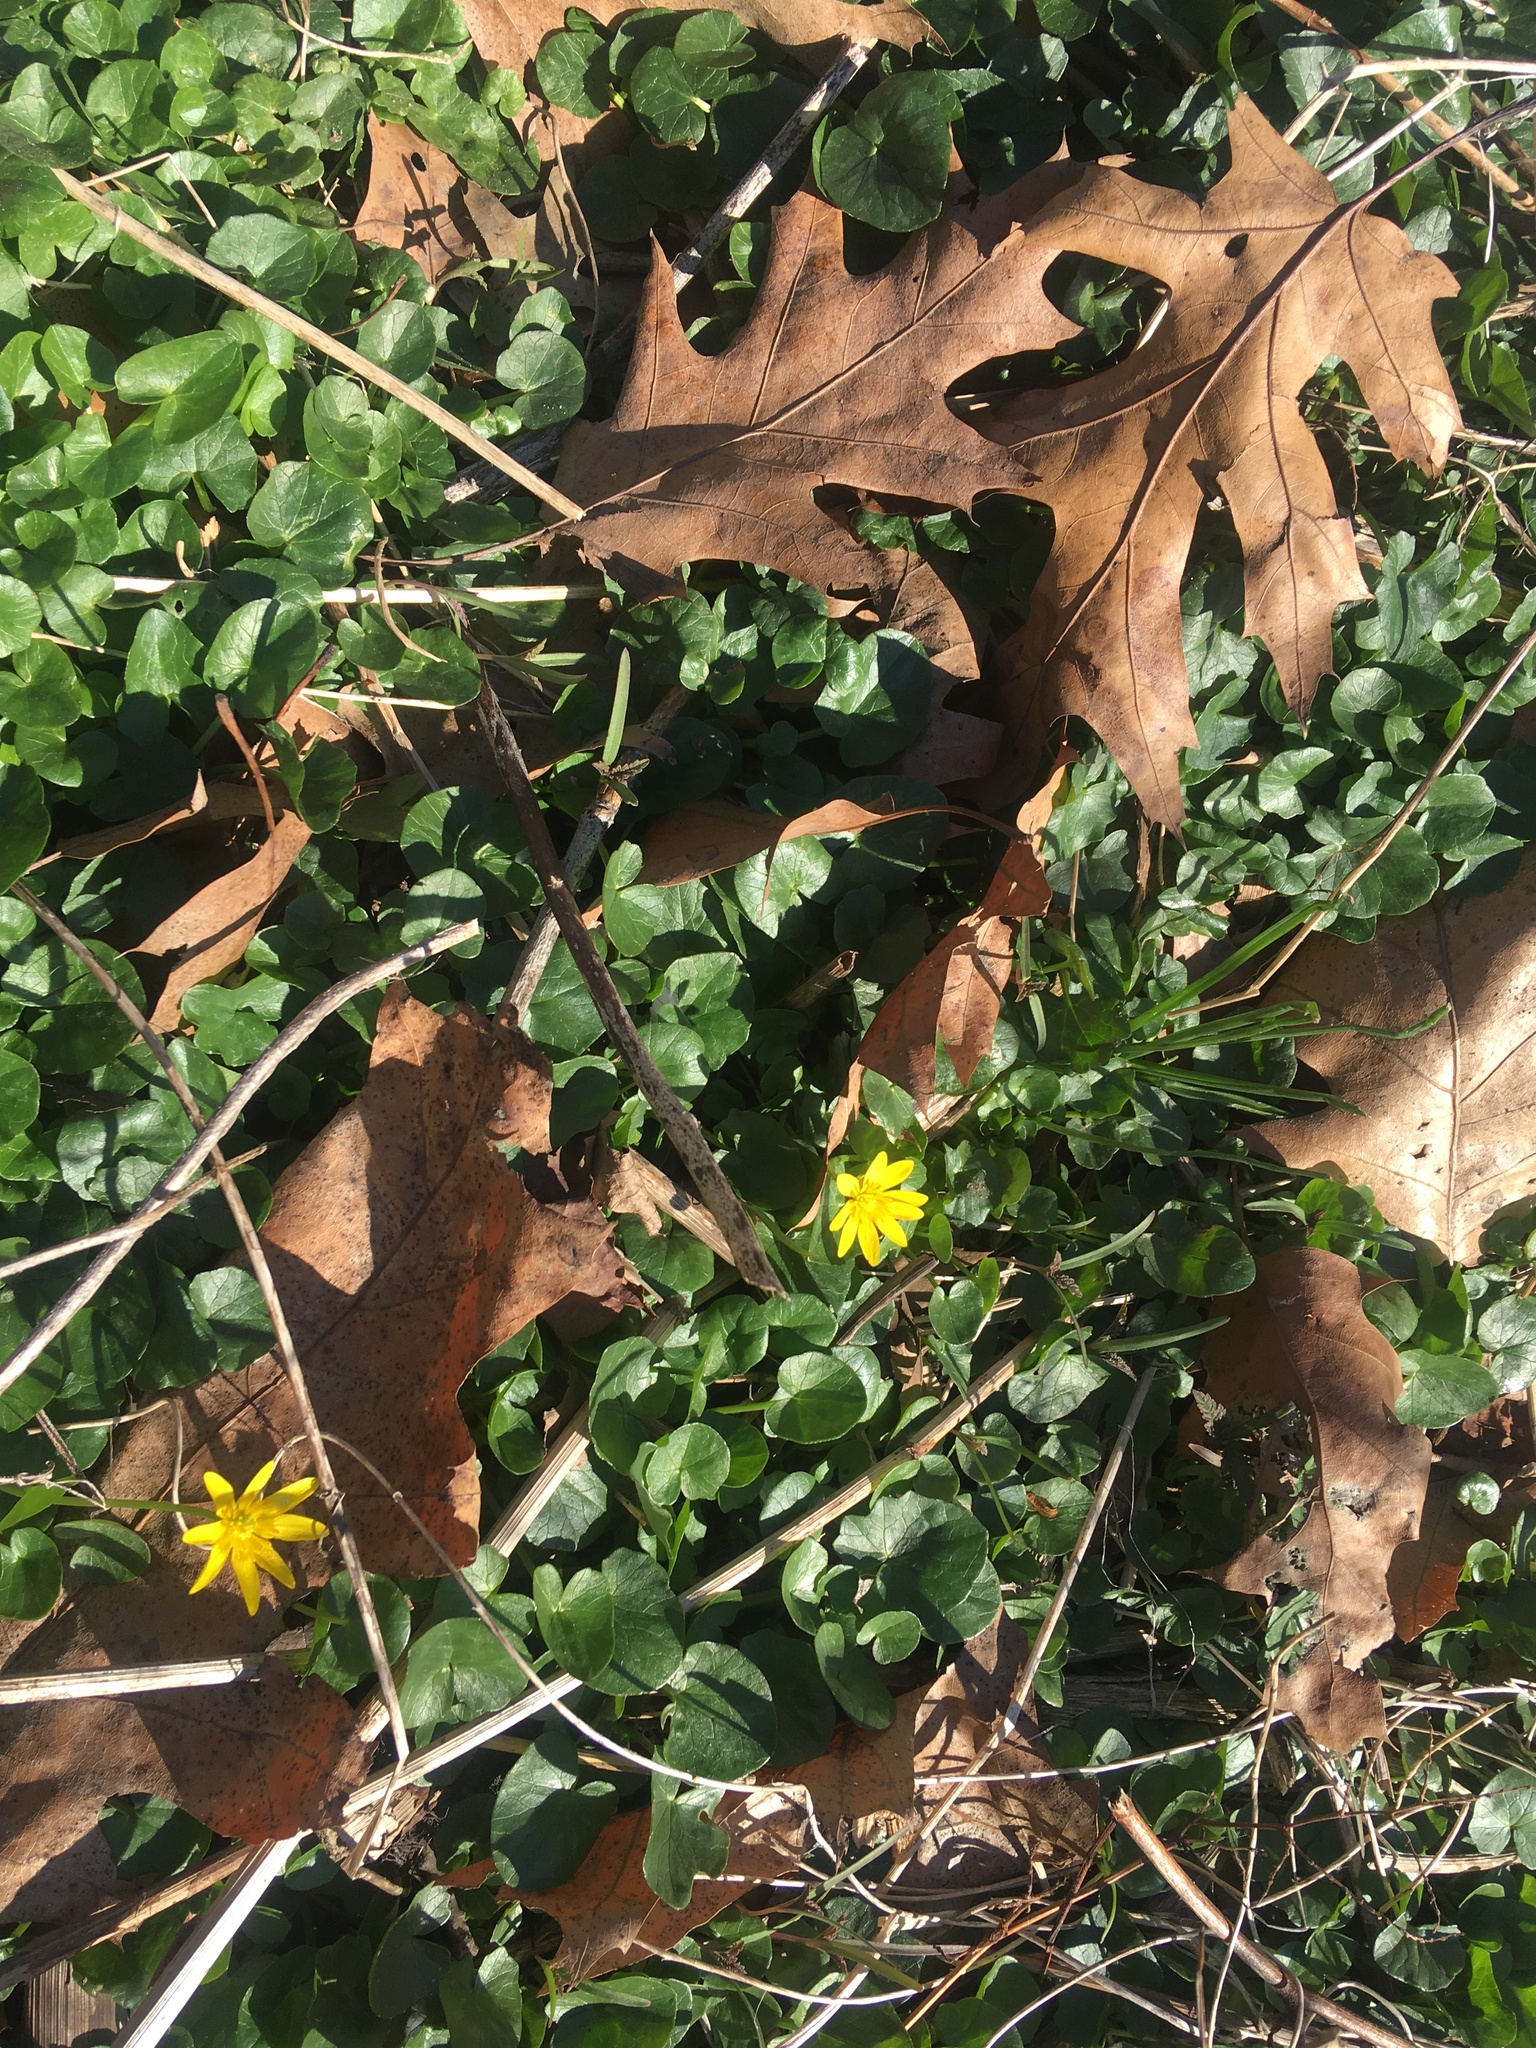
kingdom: Plantae
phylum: Tracheophyta
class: Magnoliopsida
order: Ranunculales
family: Ranunculaceae
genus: Ficaria
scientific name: Ficaria verna
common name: Lesser celandine
